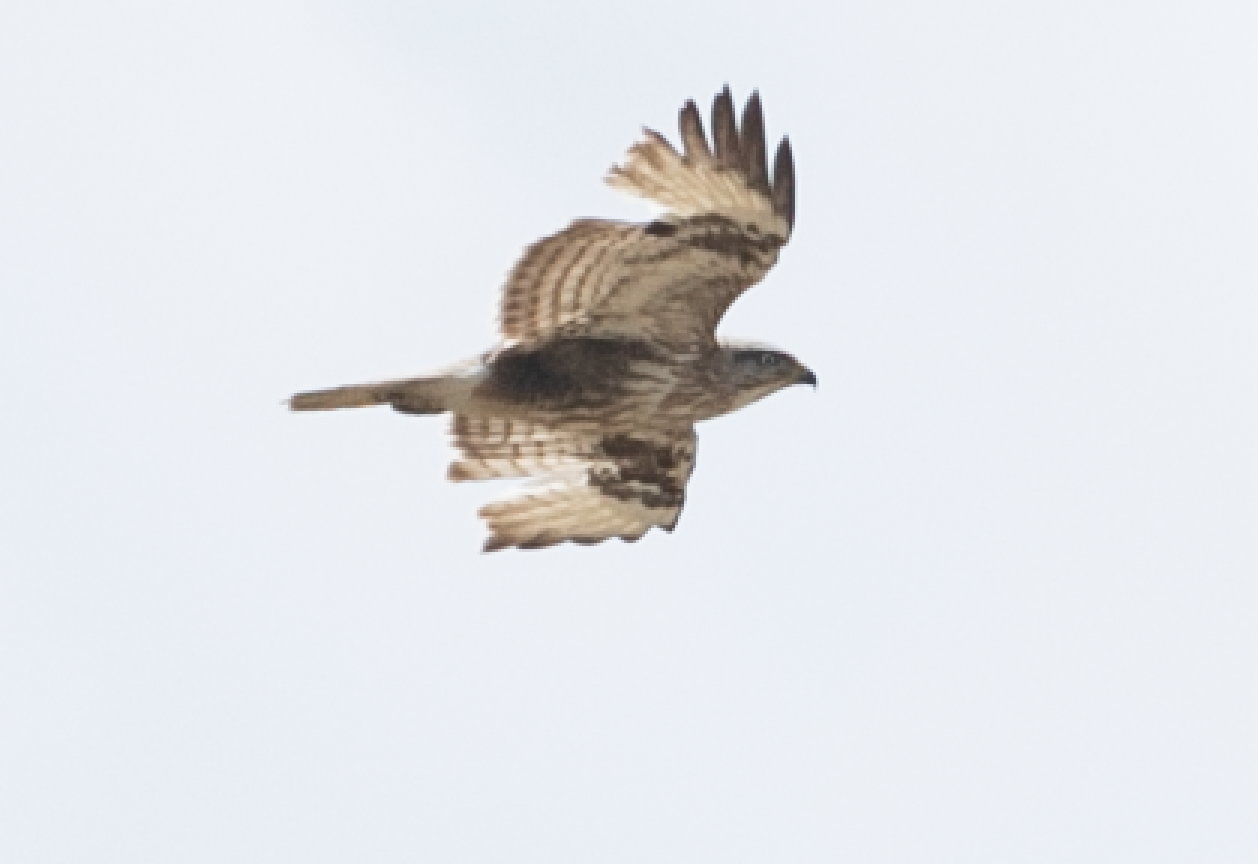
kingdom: Animalia
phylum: Chordata
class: Aves
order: Accipitriformes
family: Accipitridae
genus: Buteo
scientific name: Buteo buteo
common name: Common buzzard
